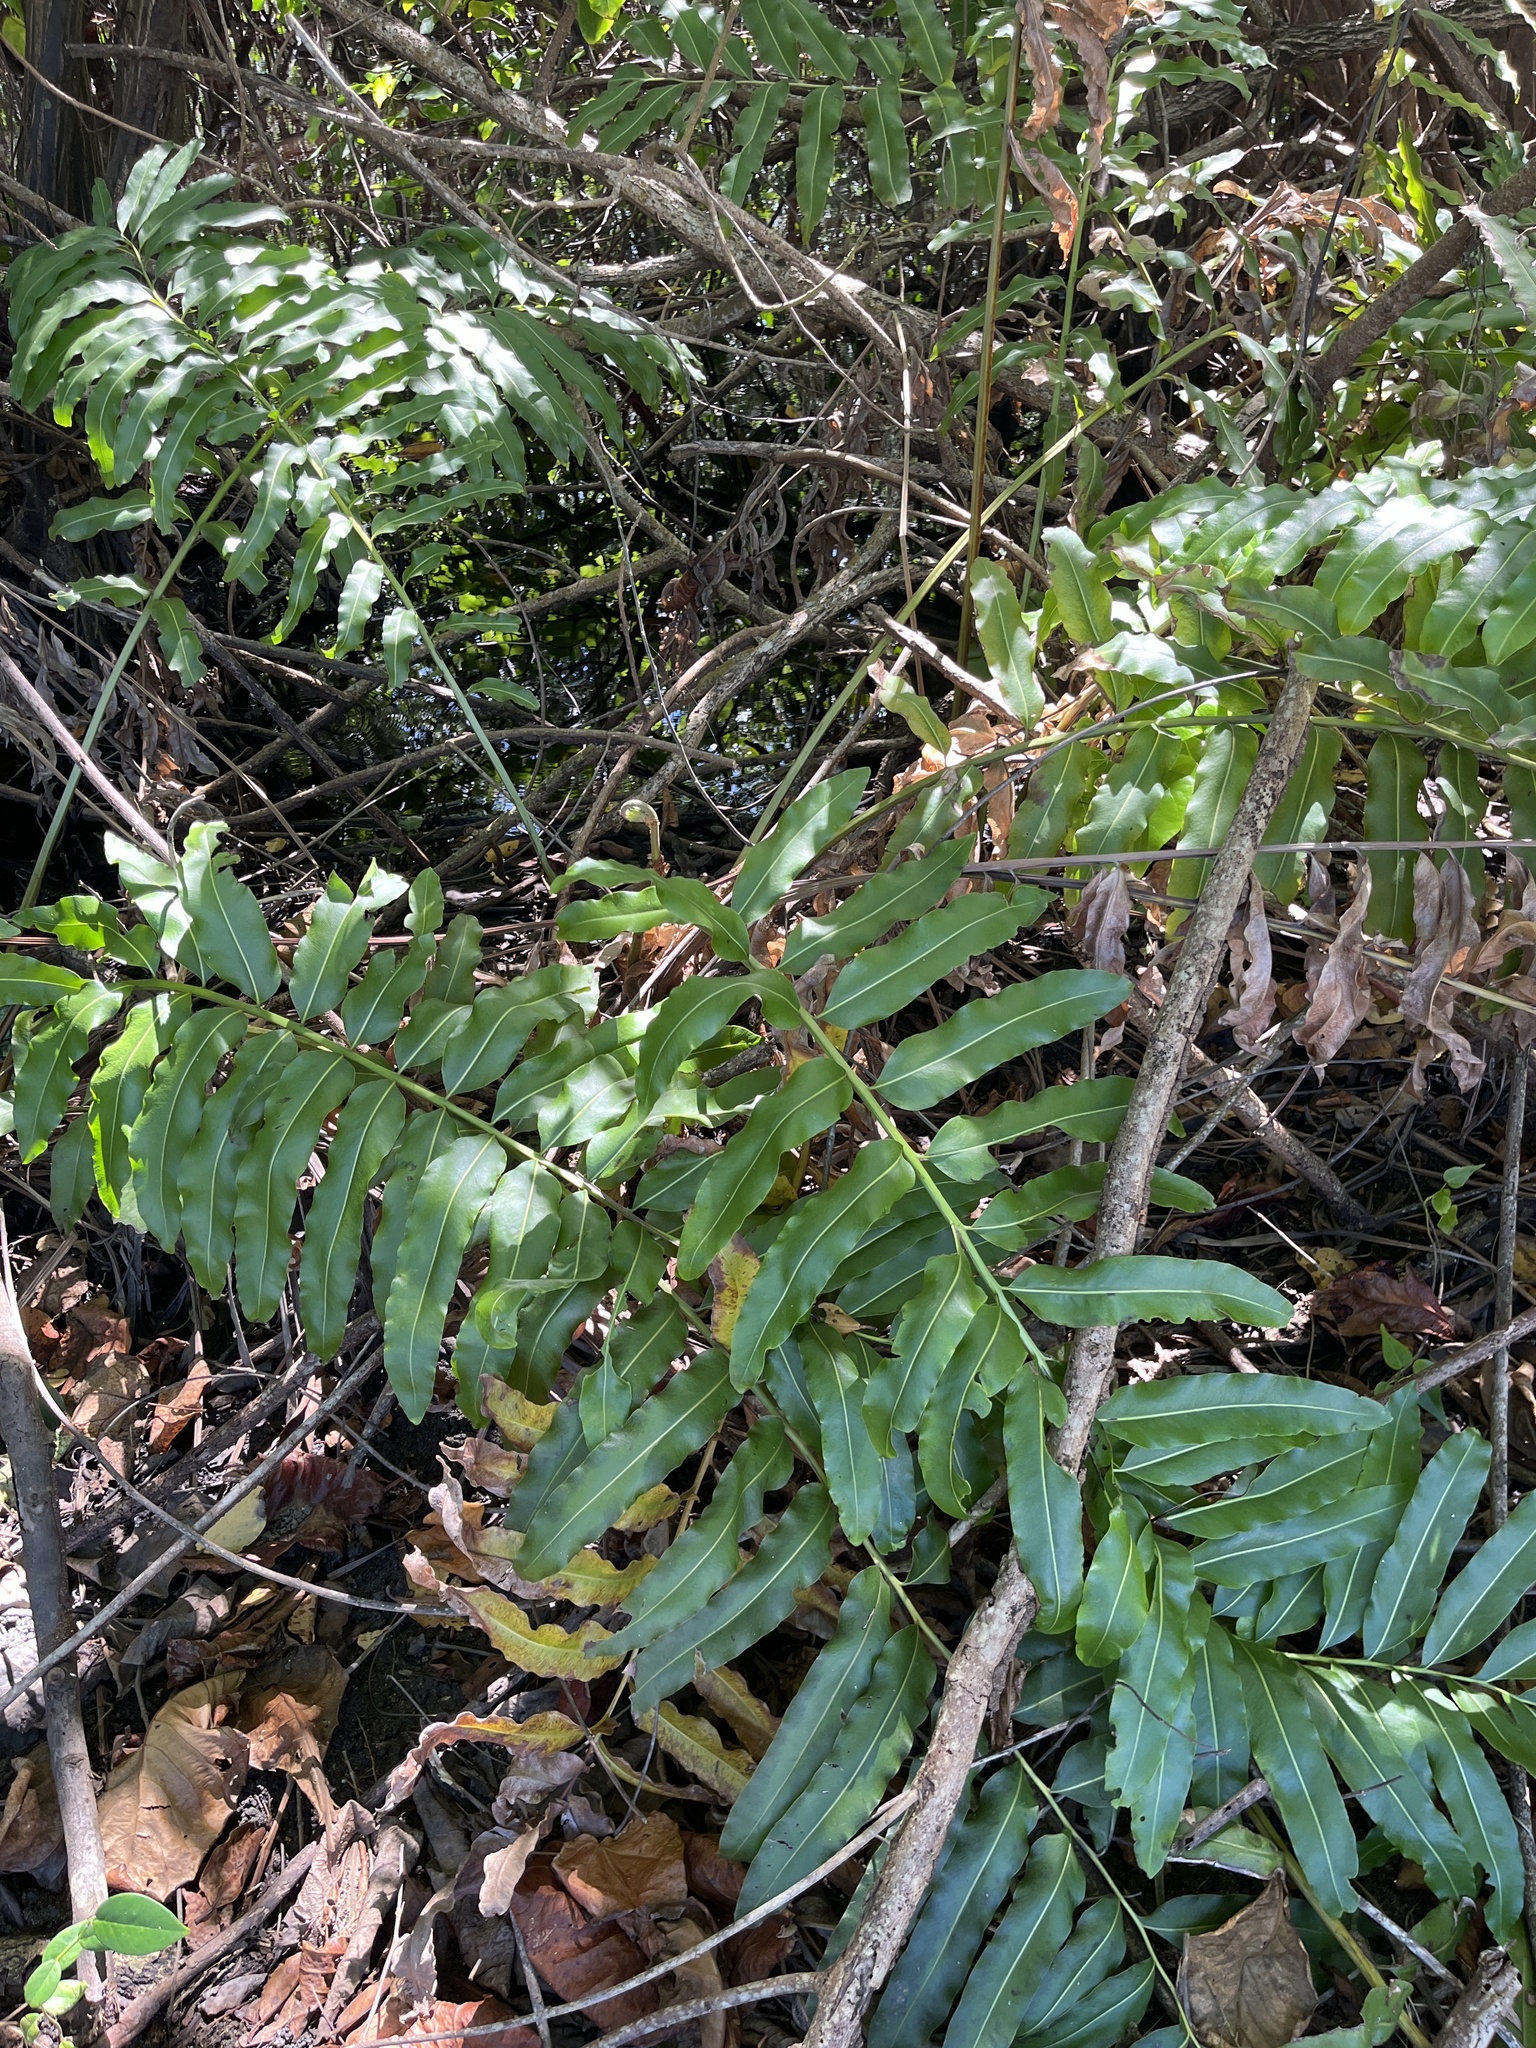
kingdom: Plantae
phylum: Tracheophyta
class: Polypodiopsida
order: Polypodiales
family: Pteridaceae
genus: Acrostichum
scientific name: Acrostichum danaeifolium
